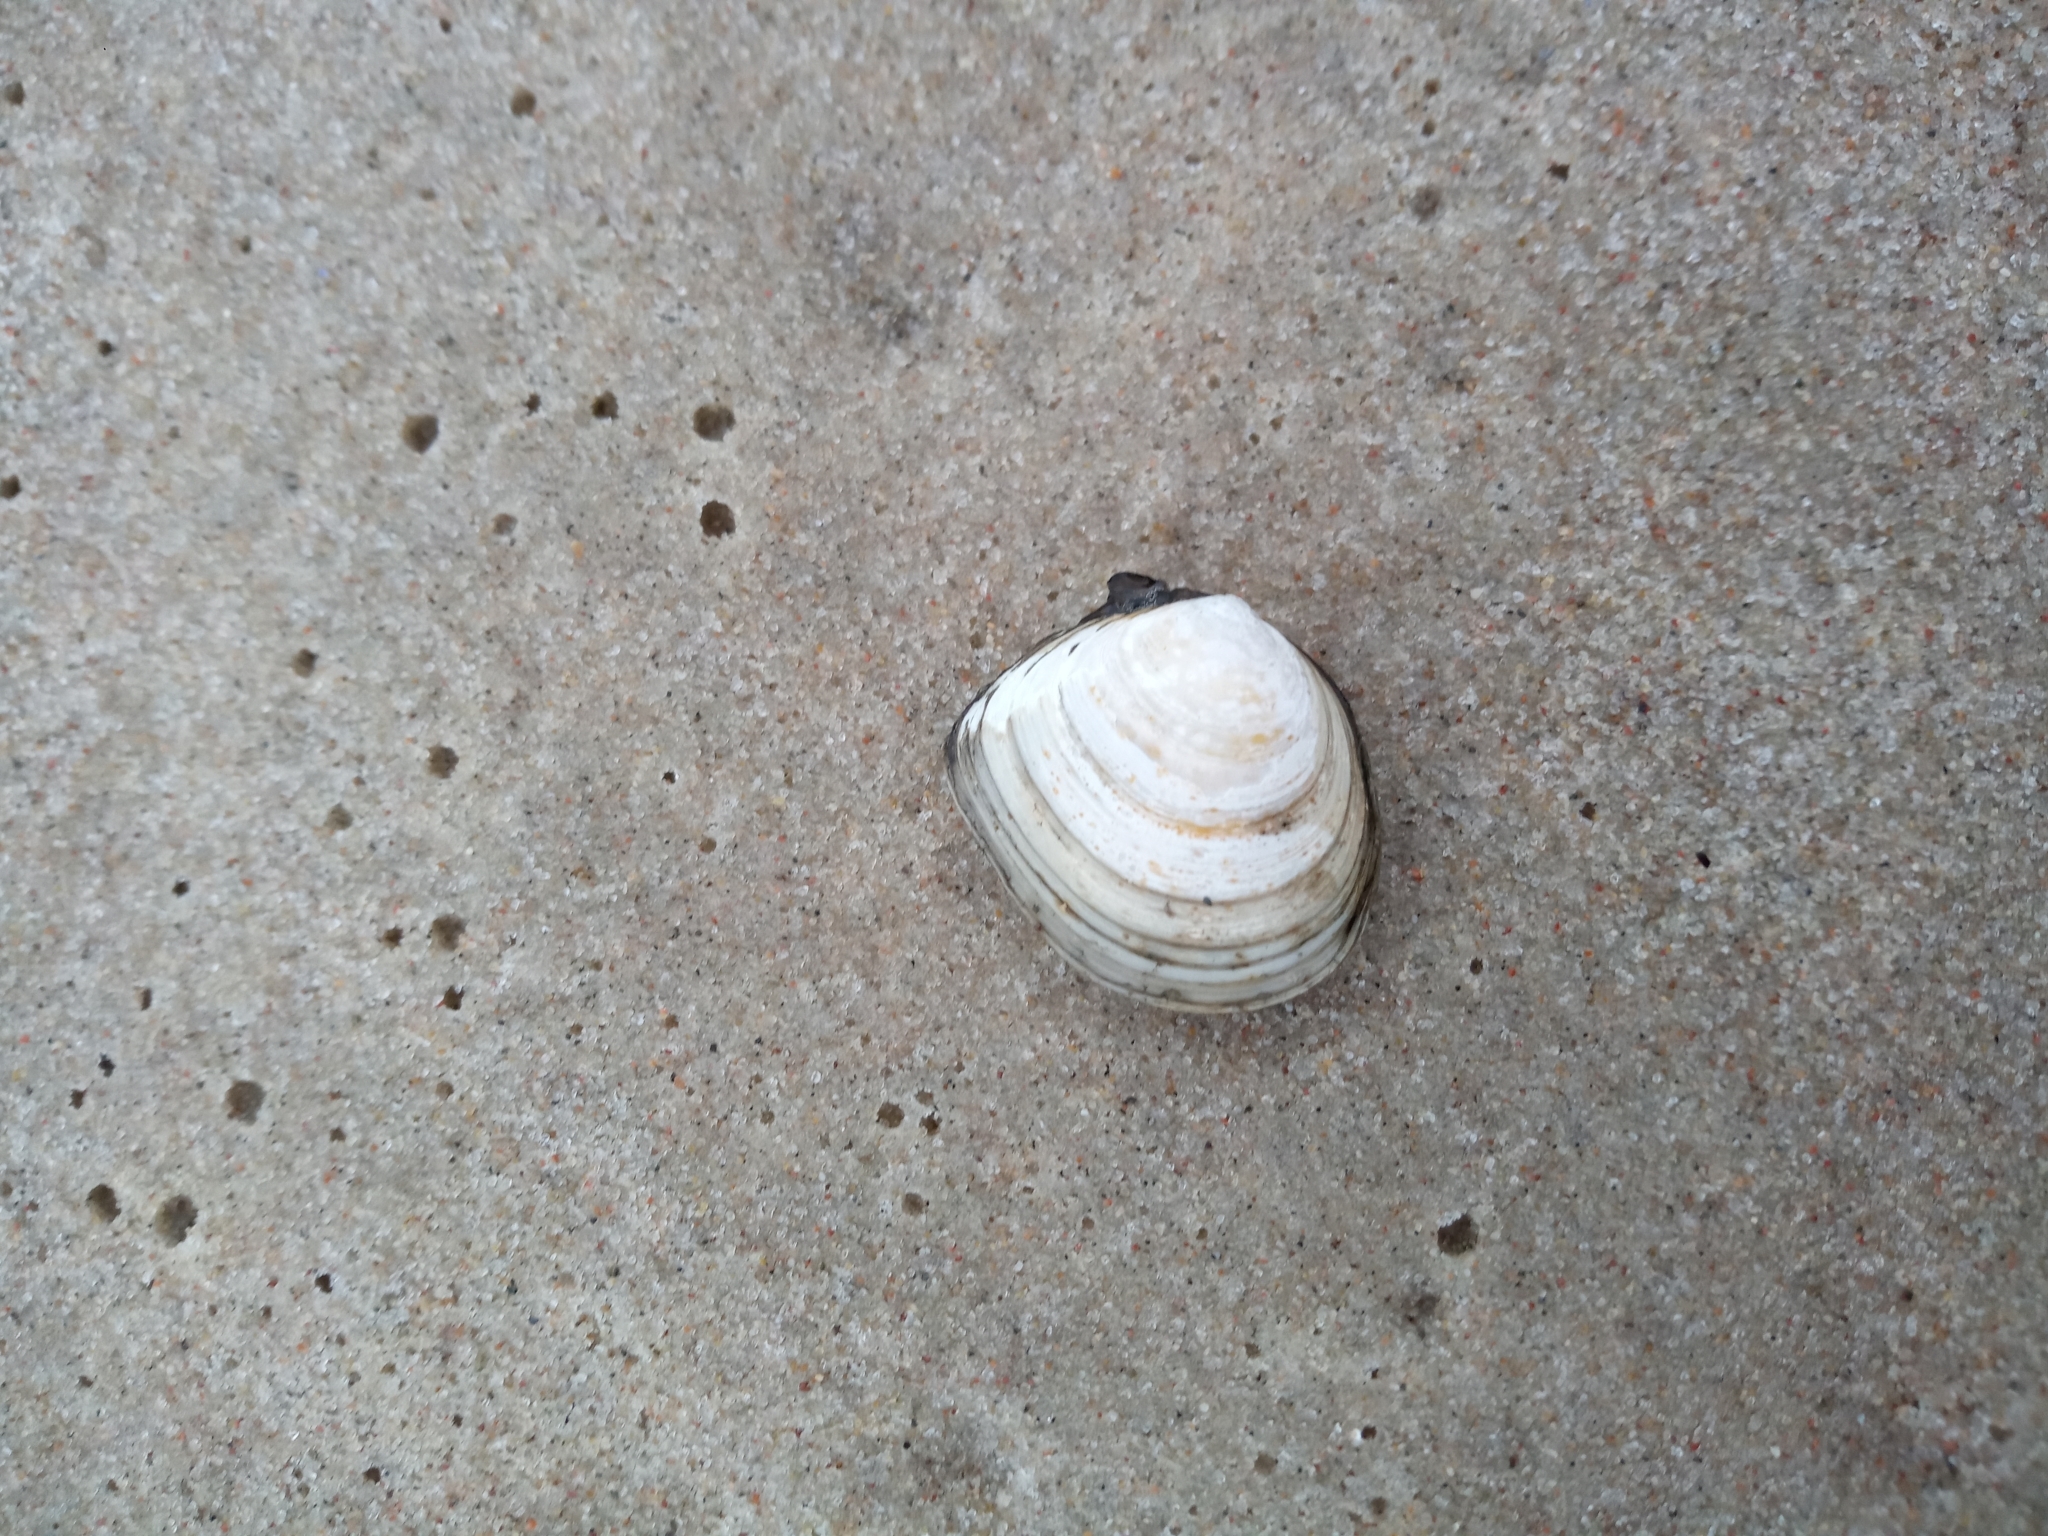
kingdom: Animalia
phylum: Mollusca
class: Bivalvia
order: Cardiida
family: Tellinidae
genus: Macoma
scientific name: Macoma balthica
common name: Baltic tellin
